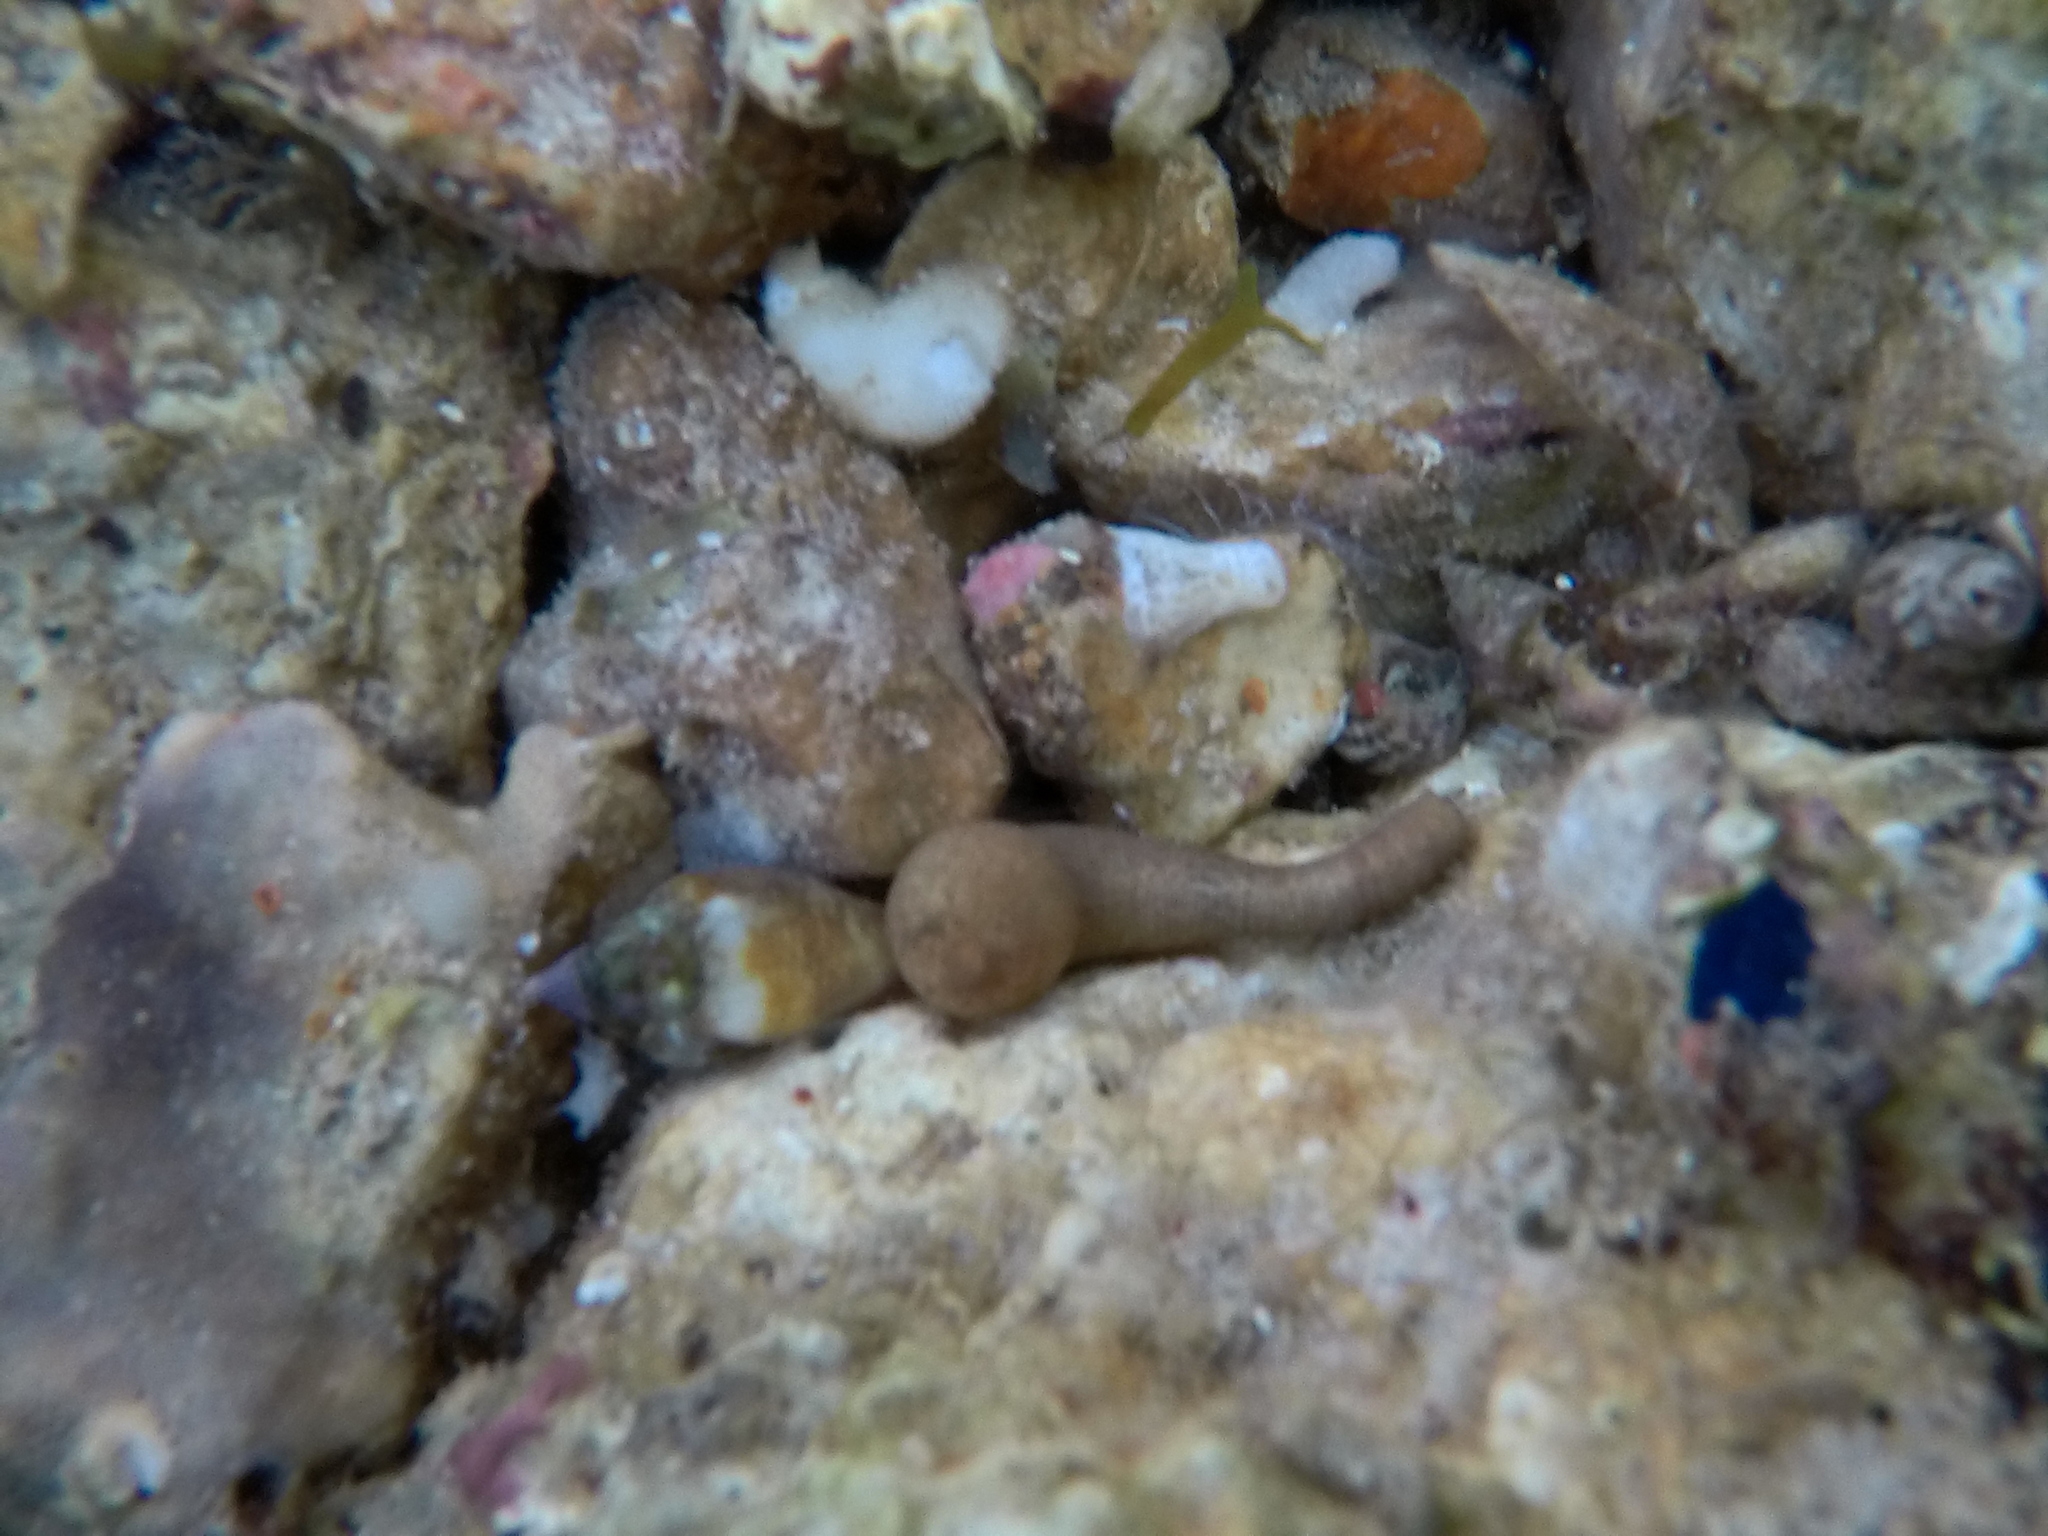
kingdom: Animalia
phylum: Mollusca
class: Gastropoda
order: Neogastropoda
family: Columbellidae
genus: Columbella
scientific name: Columbella rustica
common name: Rustic dove shell
